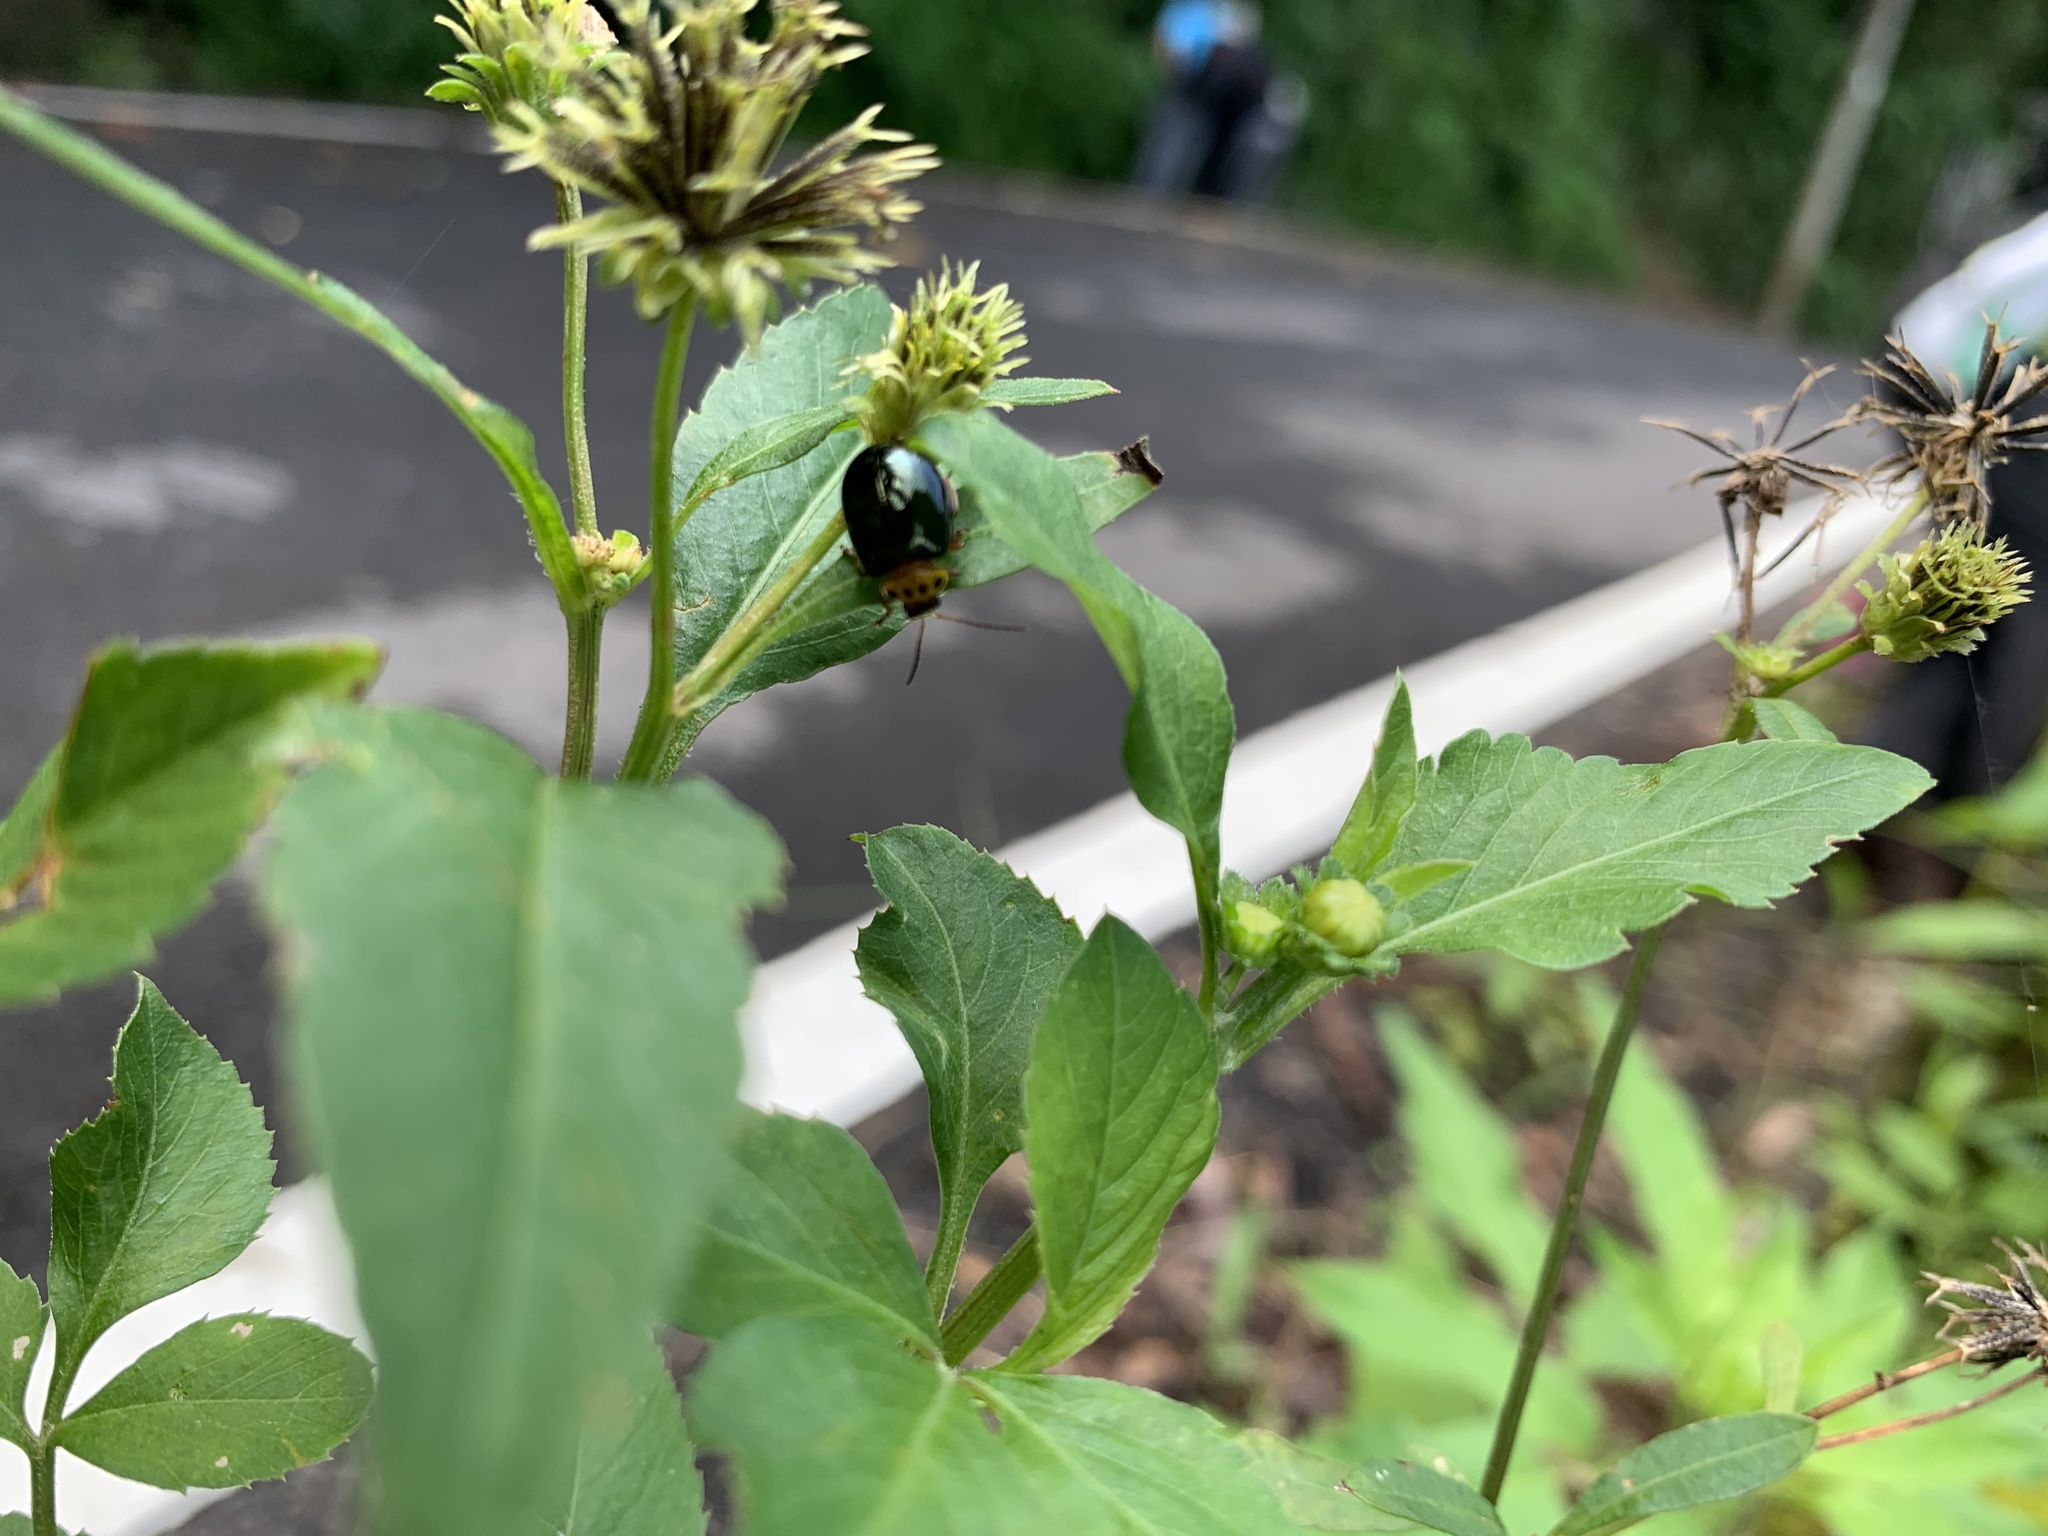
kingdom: Animalia
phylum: Arthropoda
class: Insecta
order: Coleoptera
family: Chrysomelidae
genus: Morphosphaera
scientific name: Morphosphaera chrysomeloides
